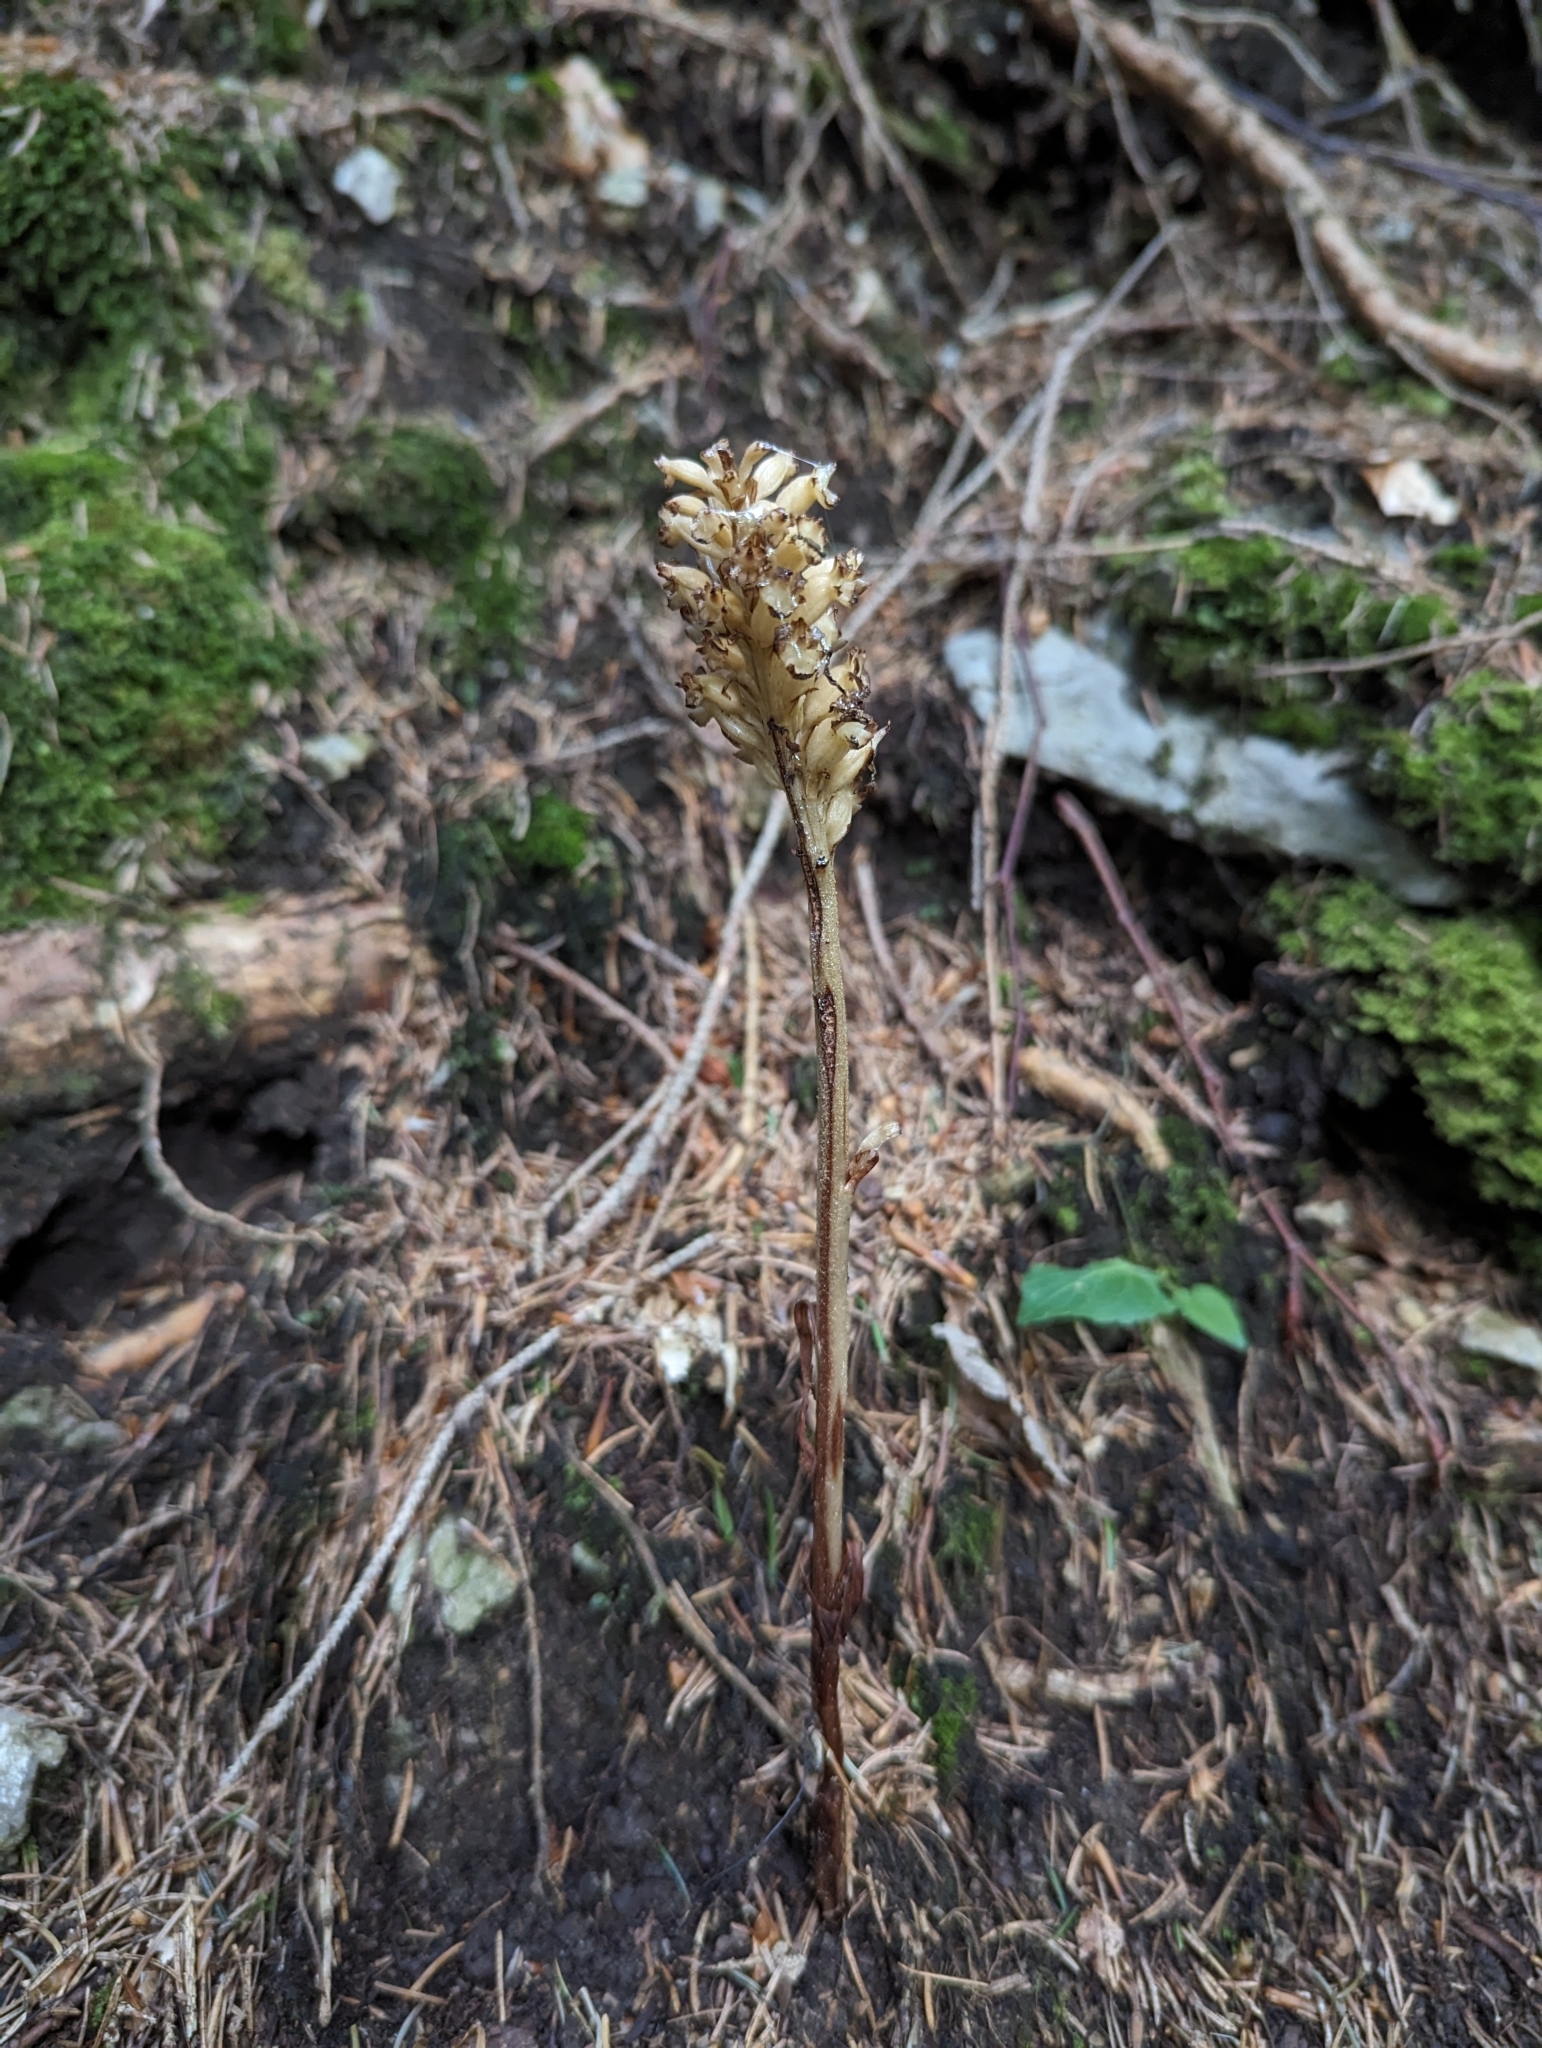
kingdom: Plantae
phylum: Tracheophyta
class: Liliopsida
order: Asparagales
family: Orchidaceae
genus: Neottia
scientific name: Neottia nidus-avis
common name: Bird's-nest orchid
